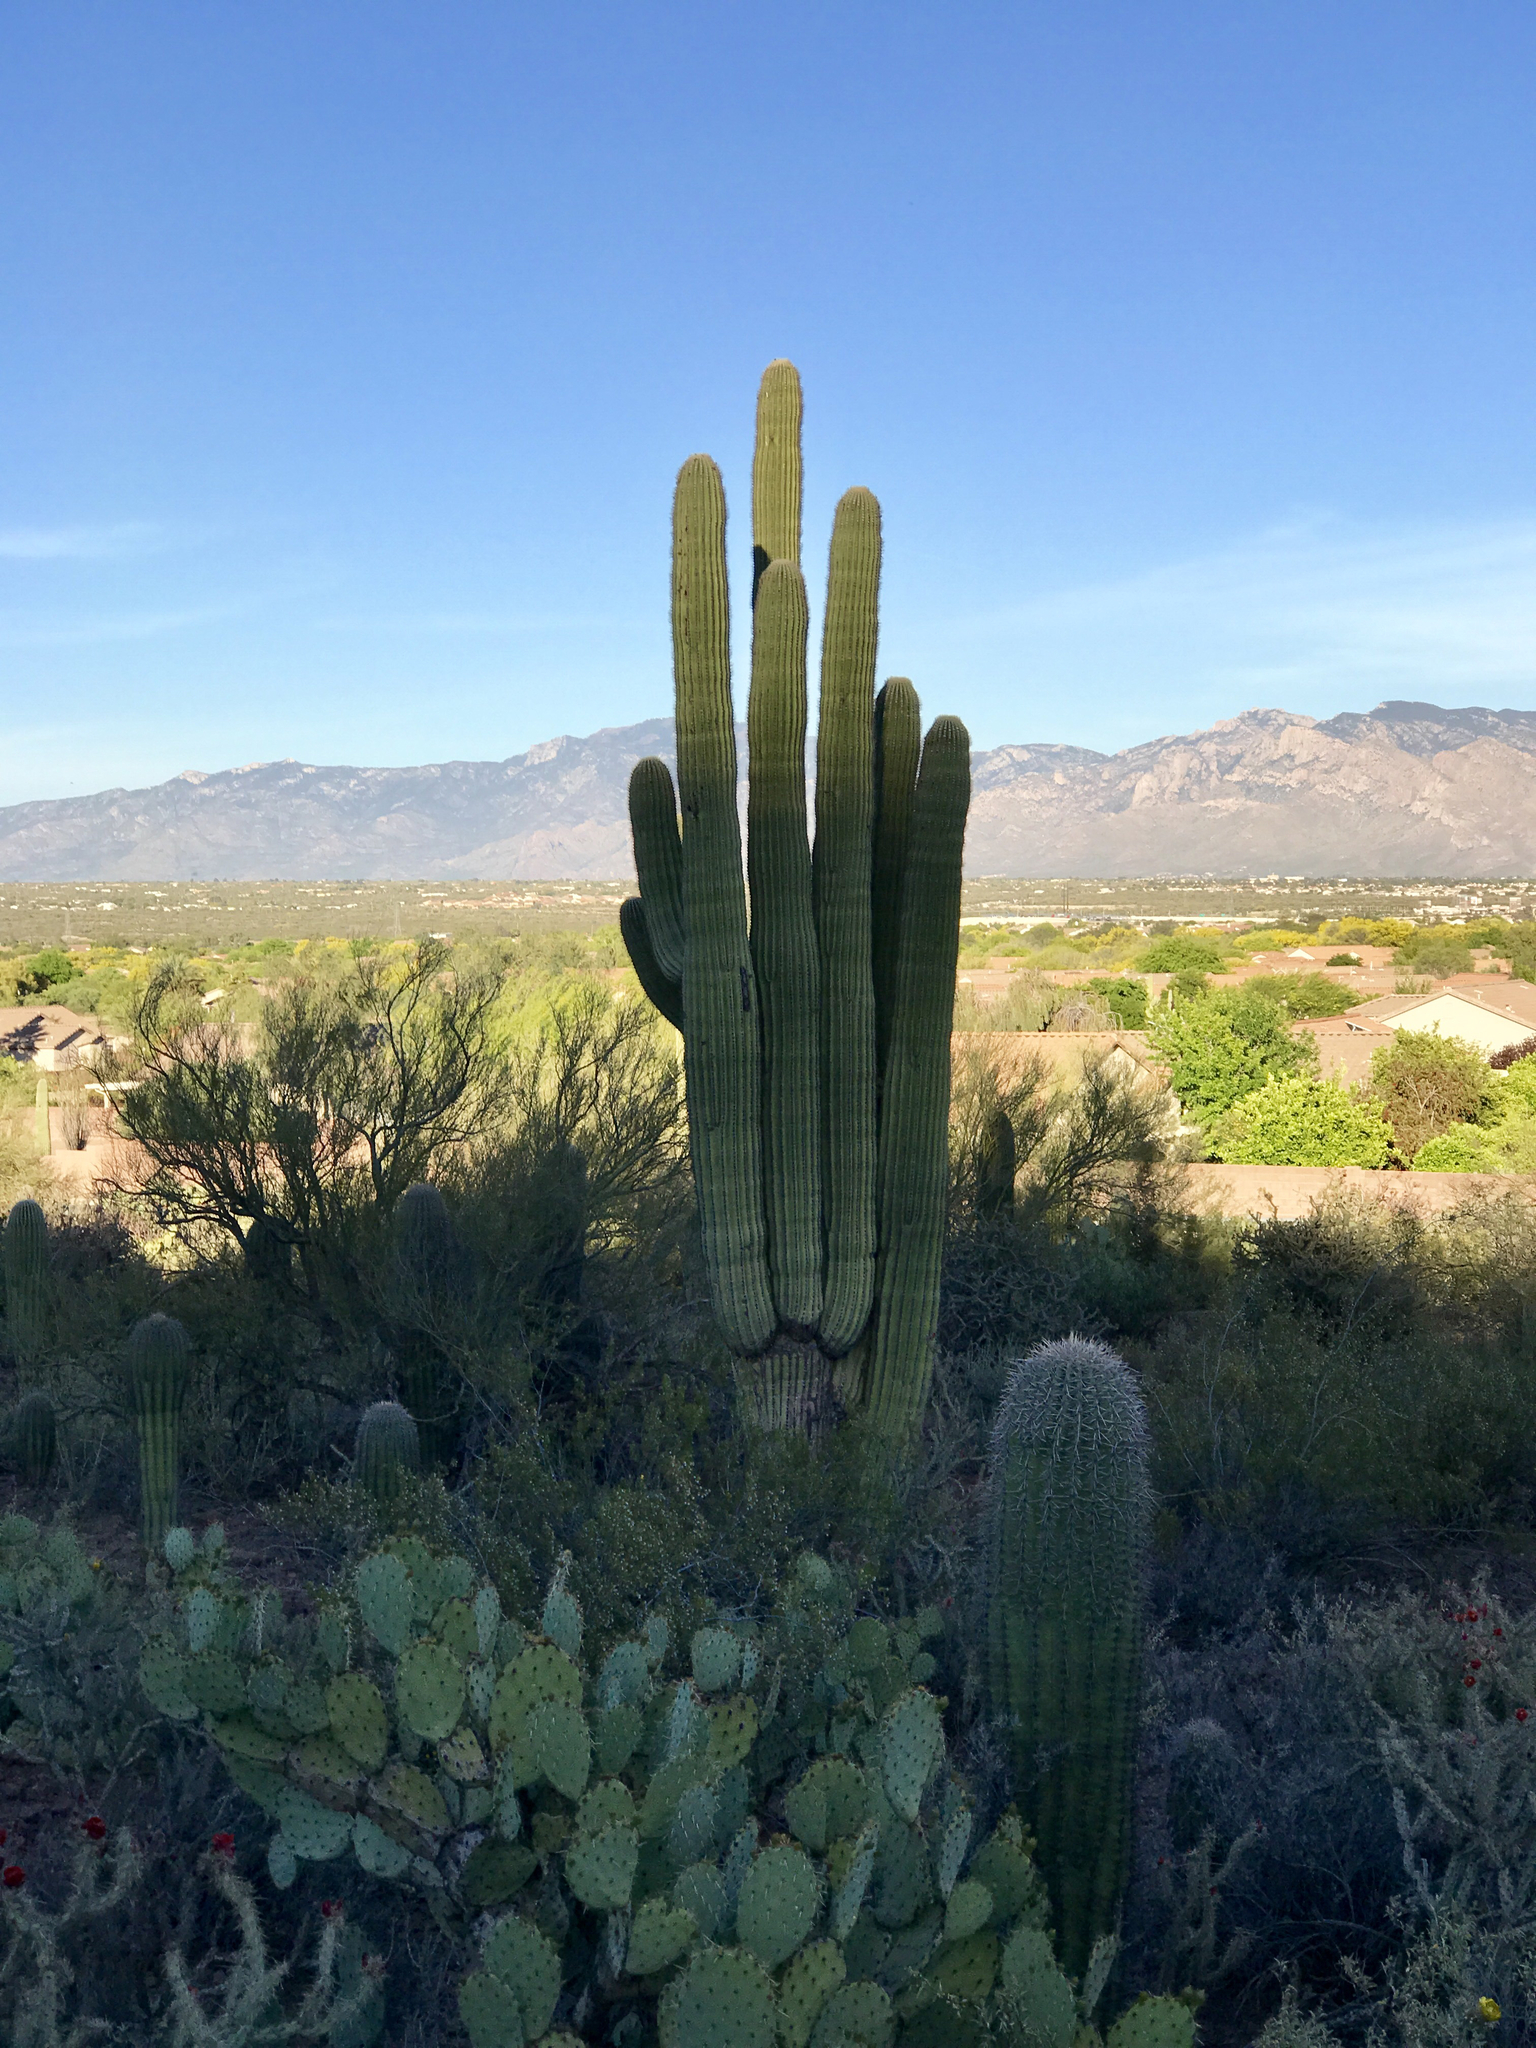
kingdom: Plantae
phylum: Tracheophyta
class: Magnoliopsida
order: Caryophyllales
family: Cactaceae
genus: Carnegiea
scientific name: Carnegiea gigantea
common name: Saguaro
